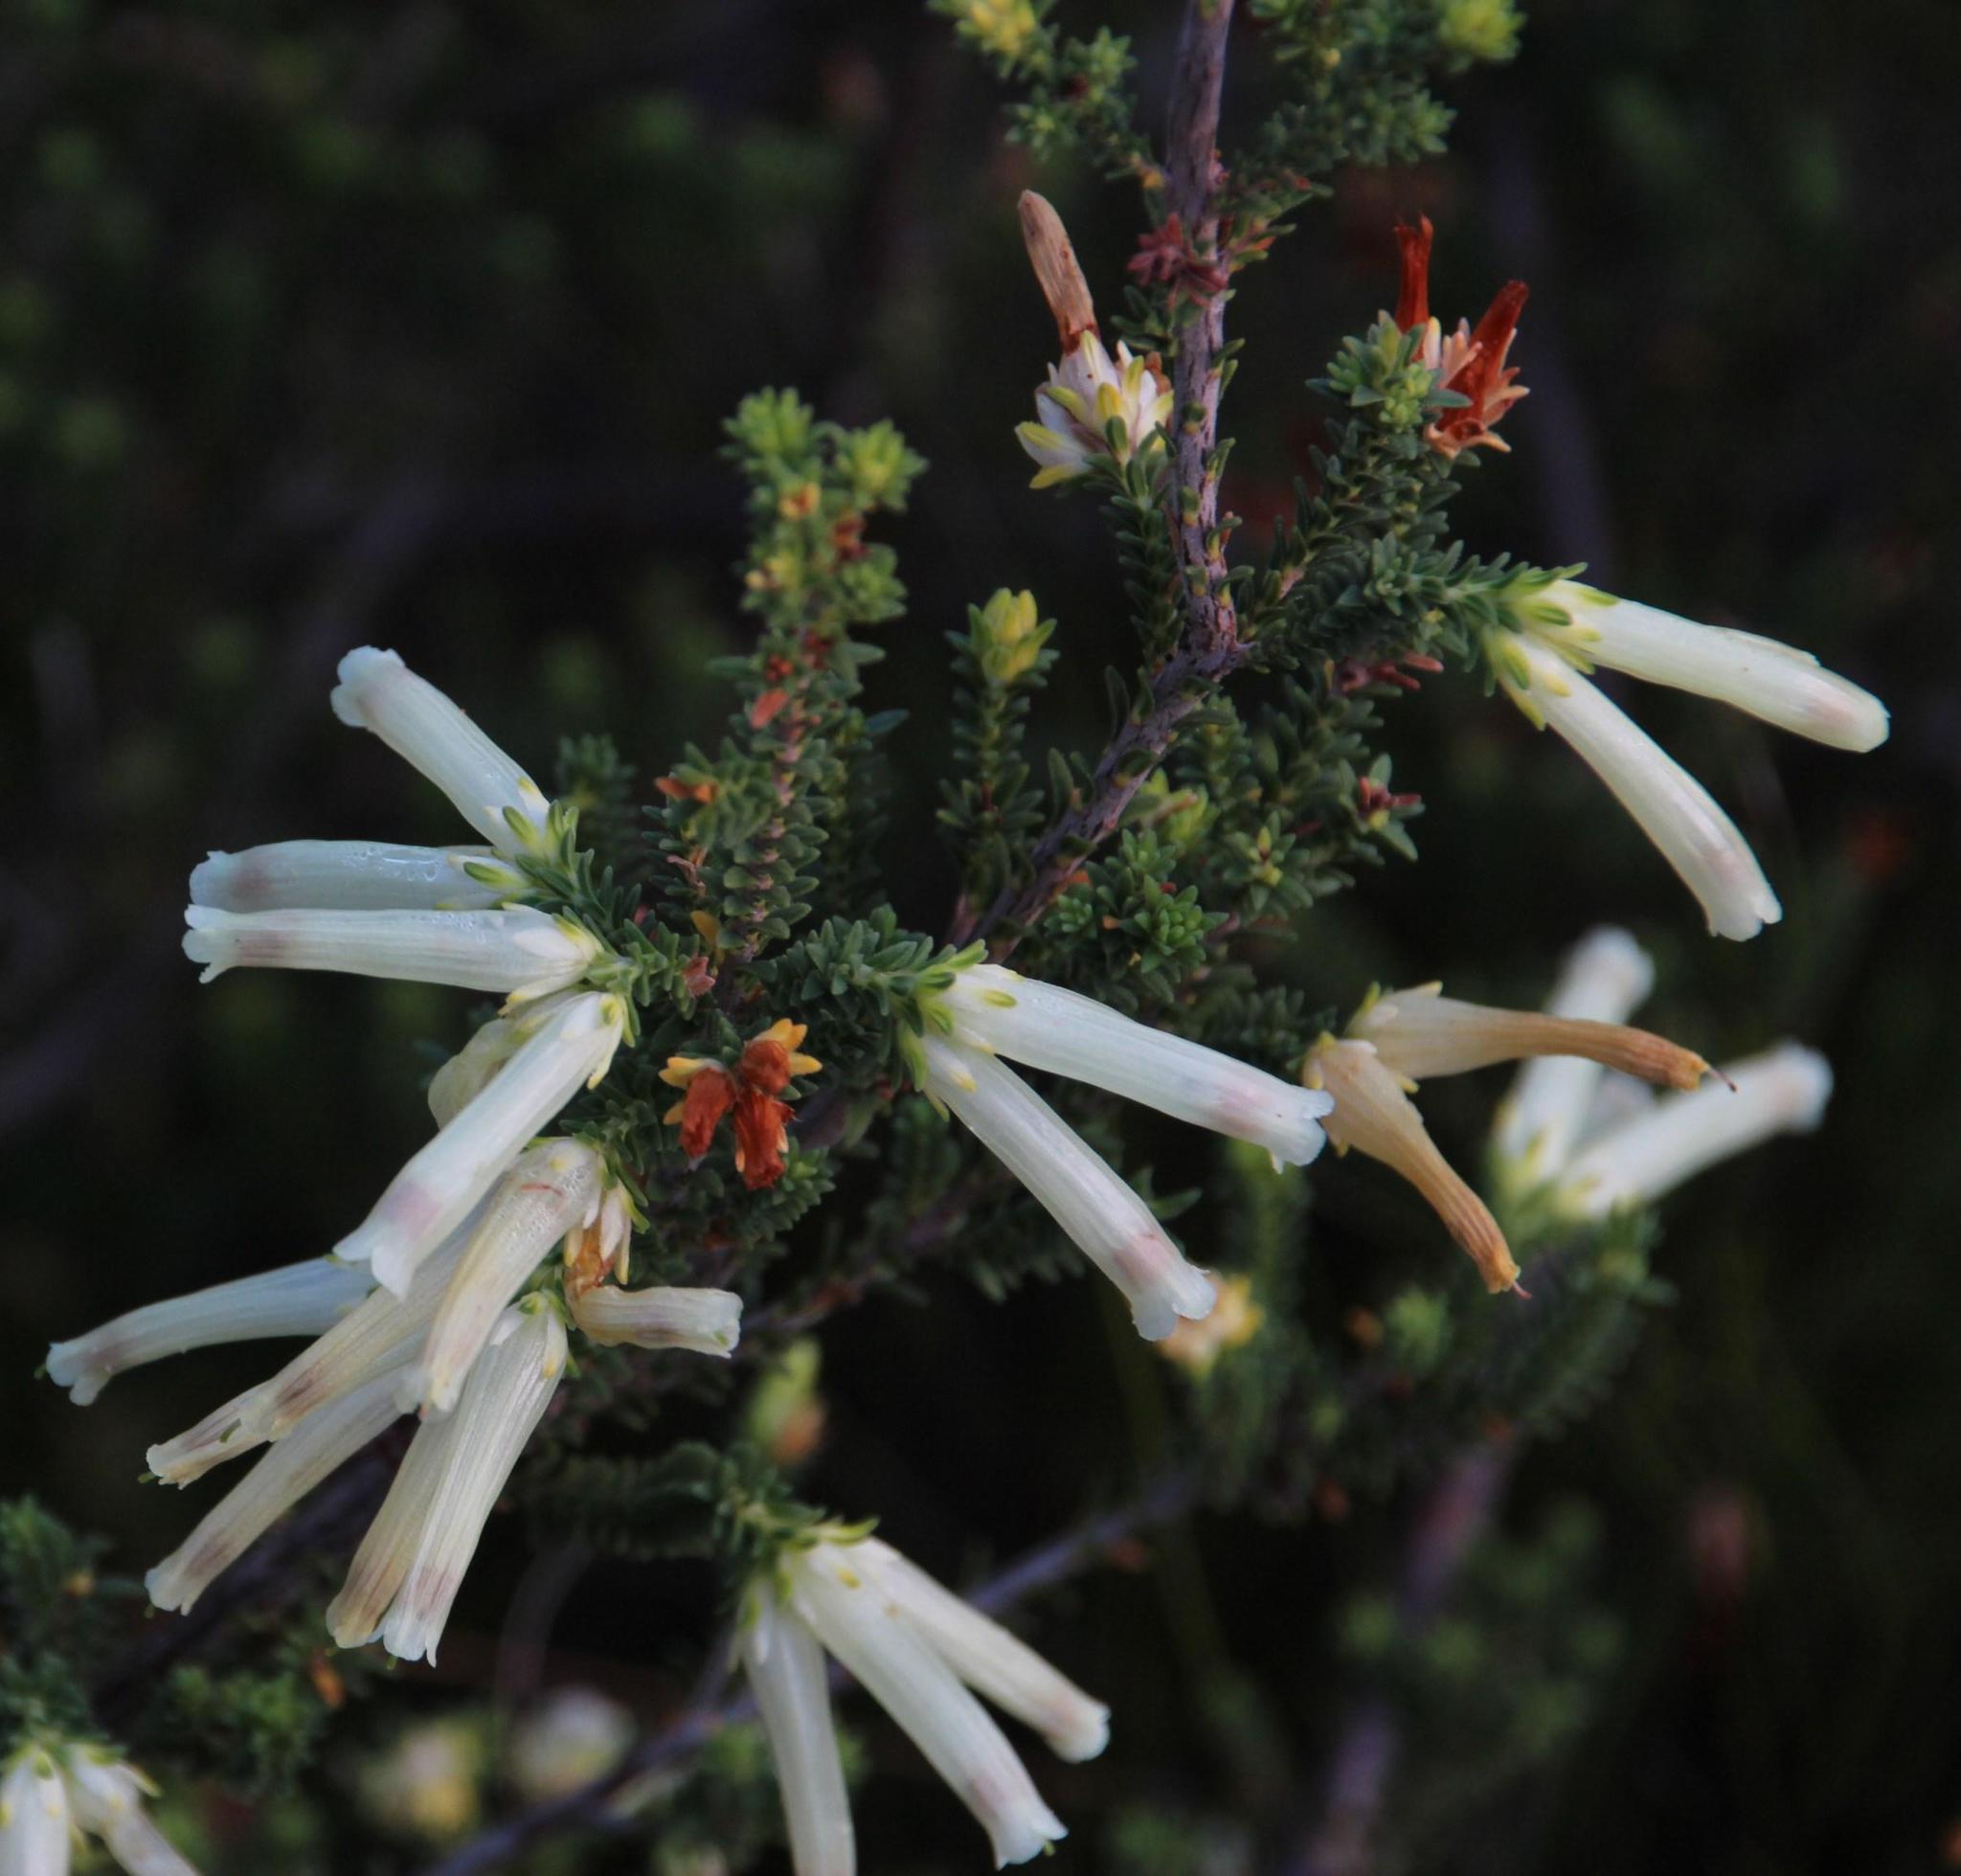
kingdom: Plantae
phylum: Tracheophyta
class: Magnoliopsida
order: Ericales
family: Ericaceae
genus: Erica
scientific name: Erica versicolor
